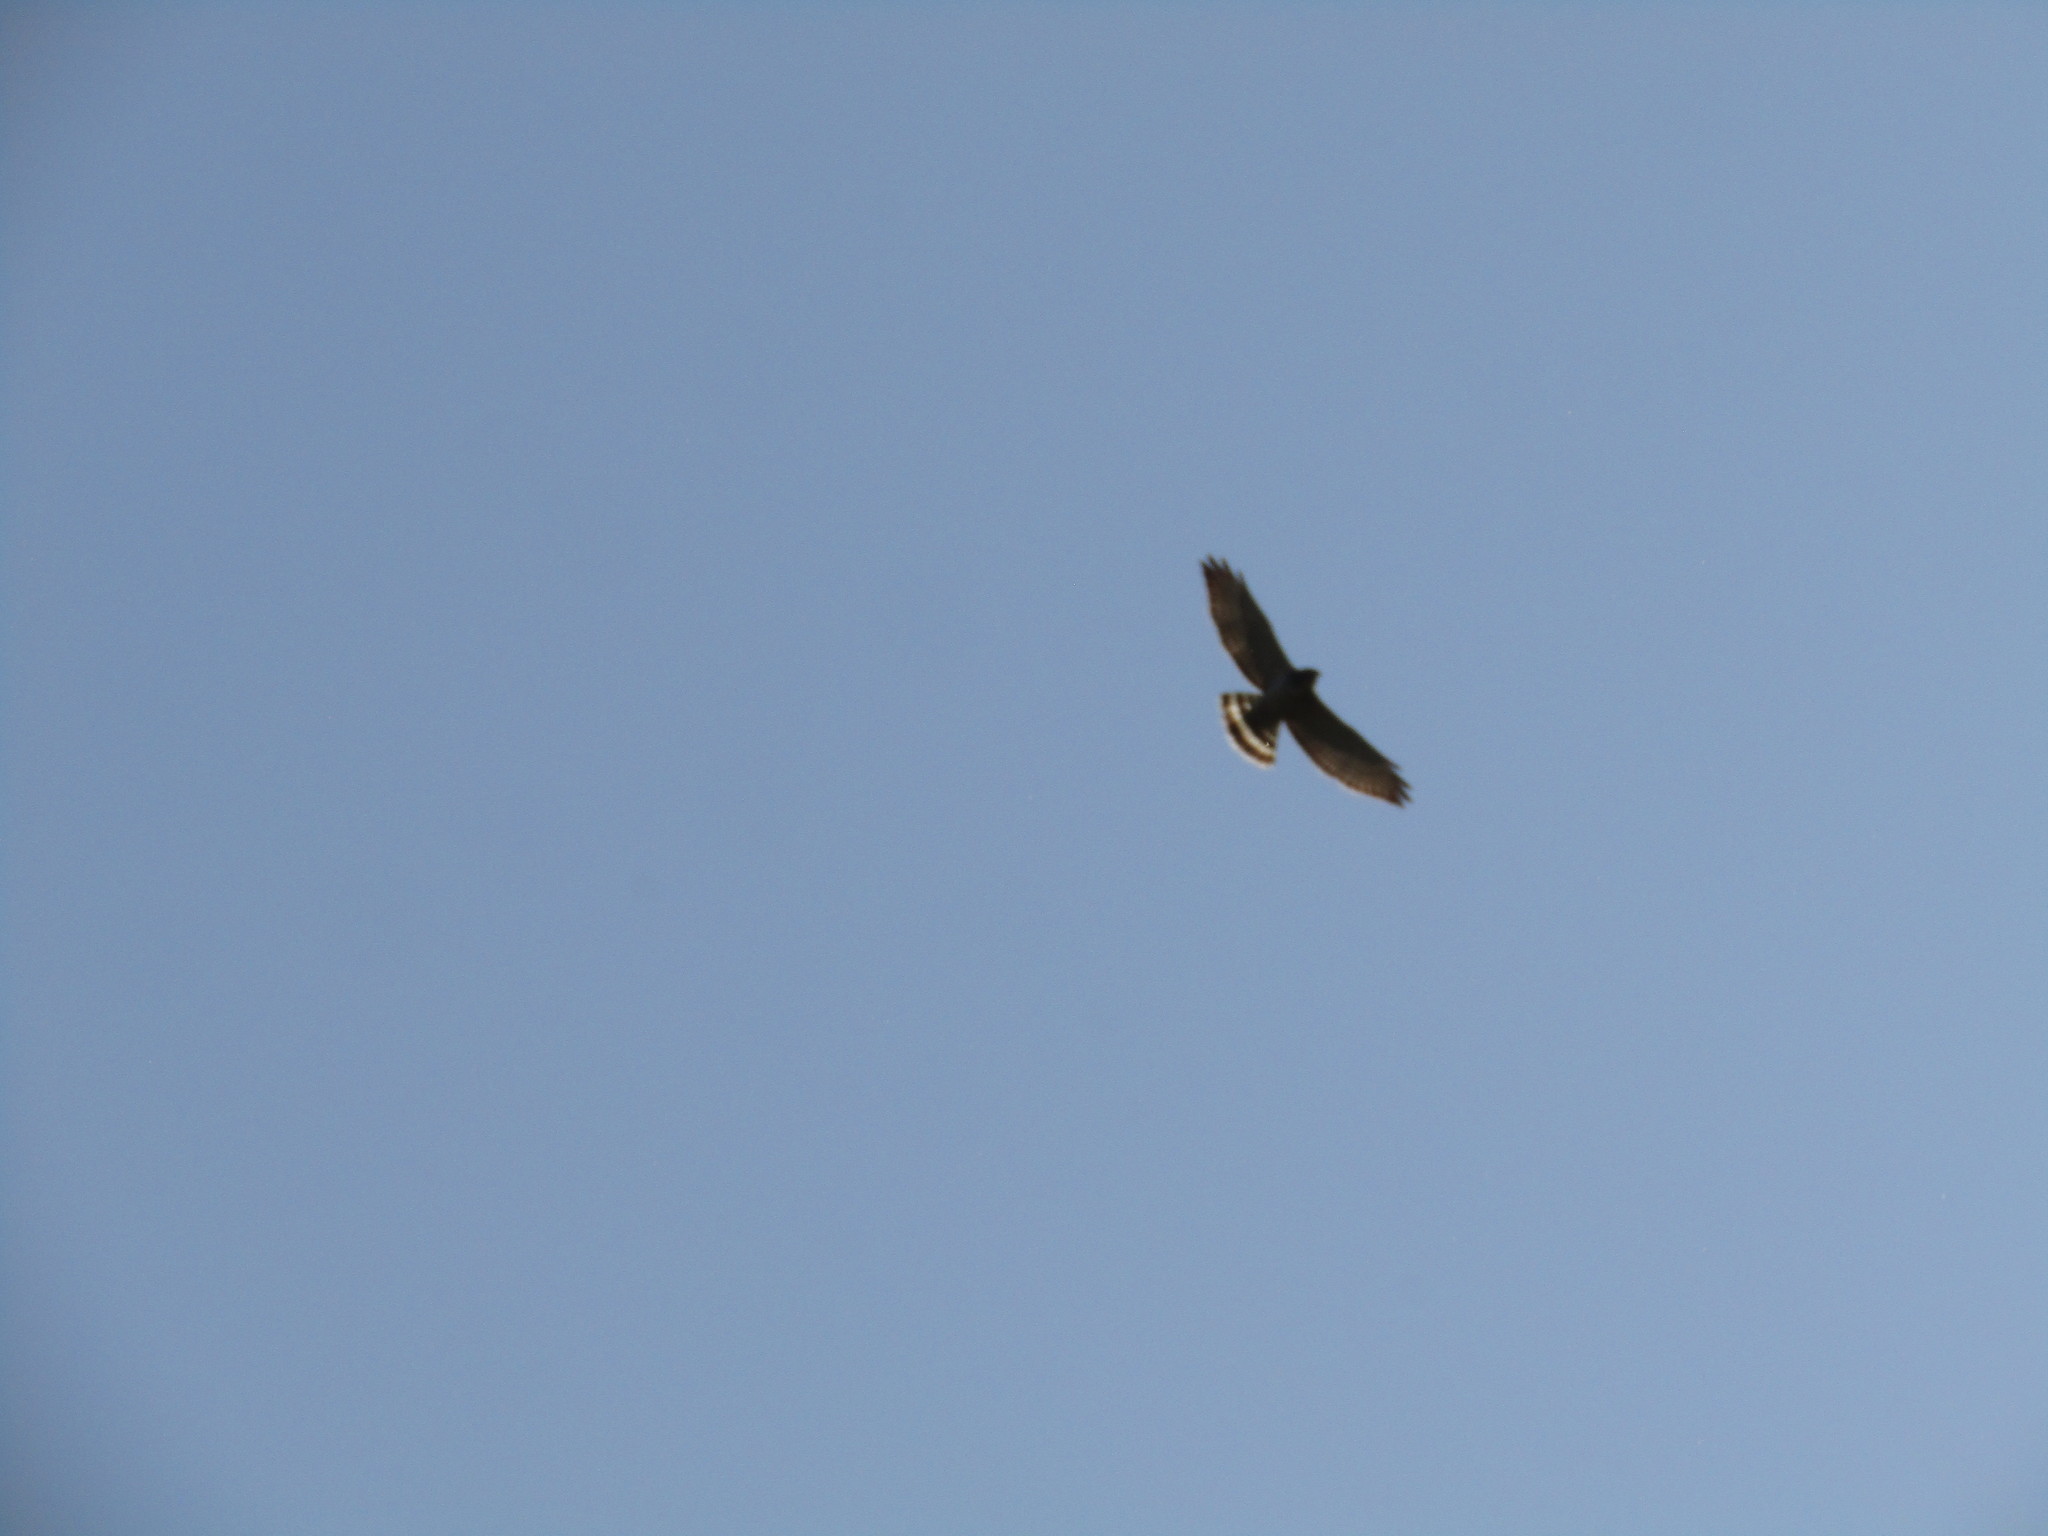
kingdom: Animalia
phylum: Chordata
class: Aves
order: Accipitriformes
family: Accipitridae
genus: Buteo
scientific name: Buteo platypterus
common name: Broad-winged hawk
